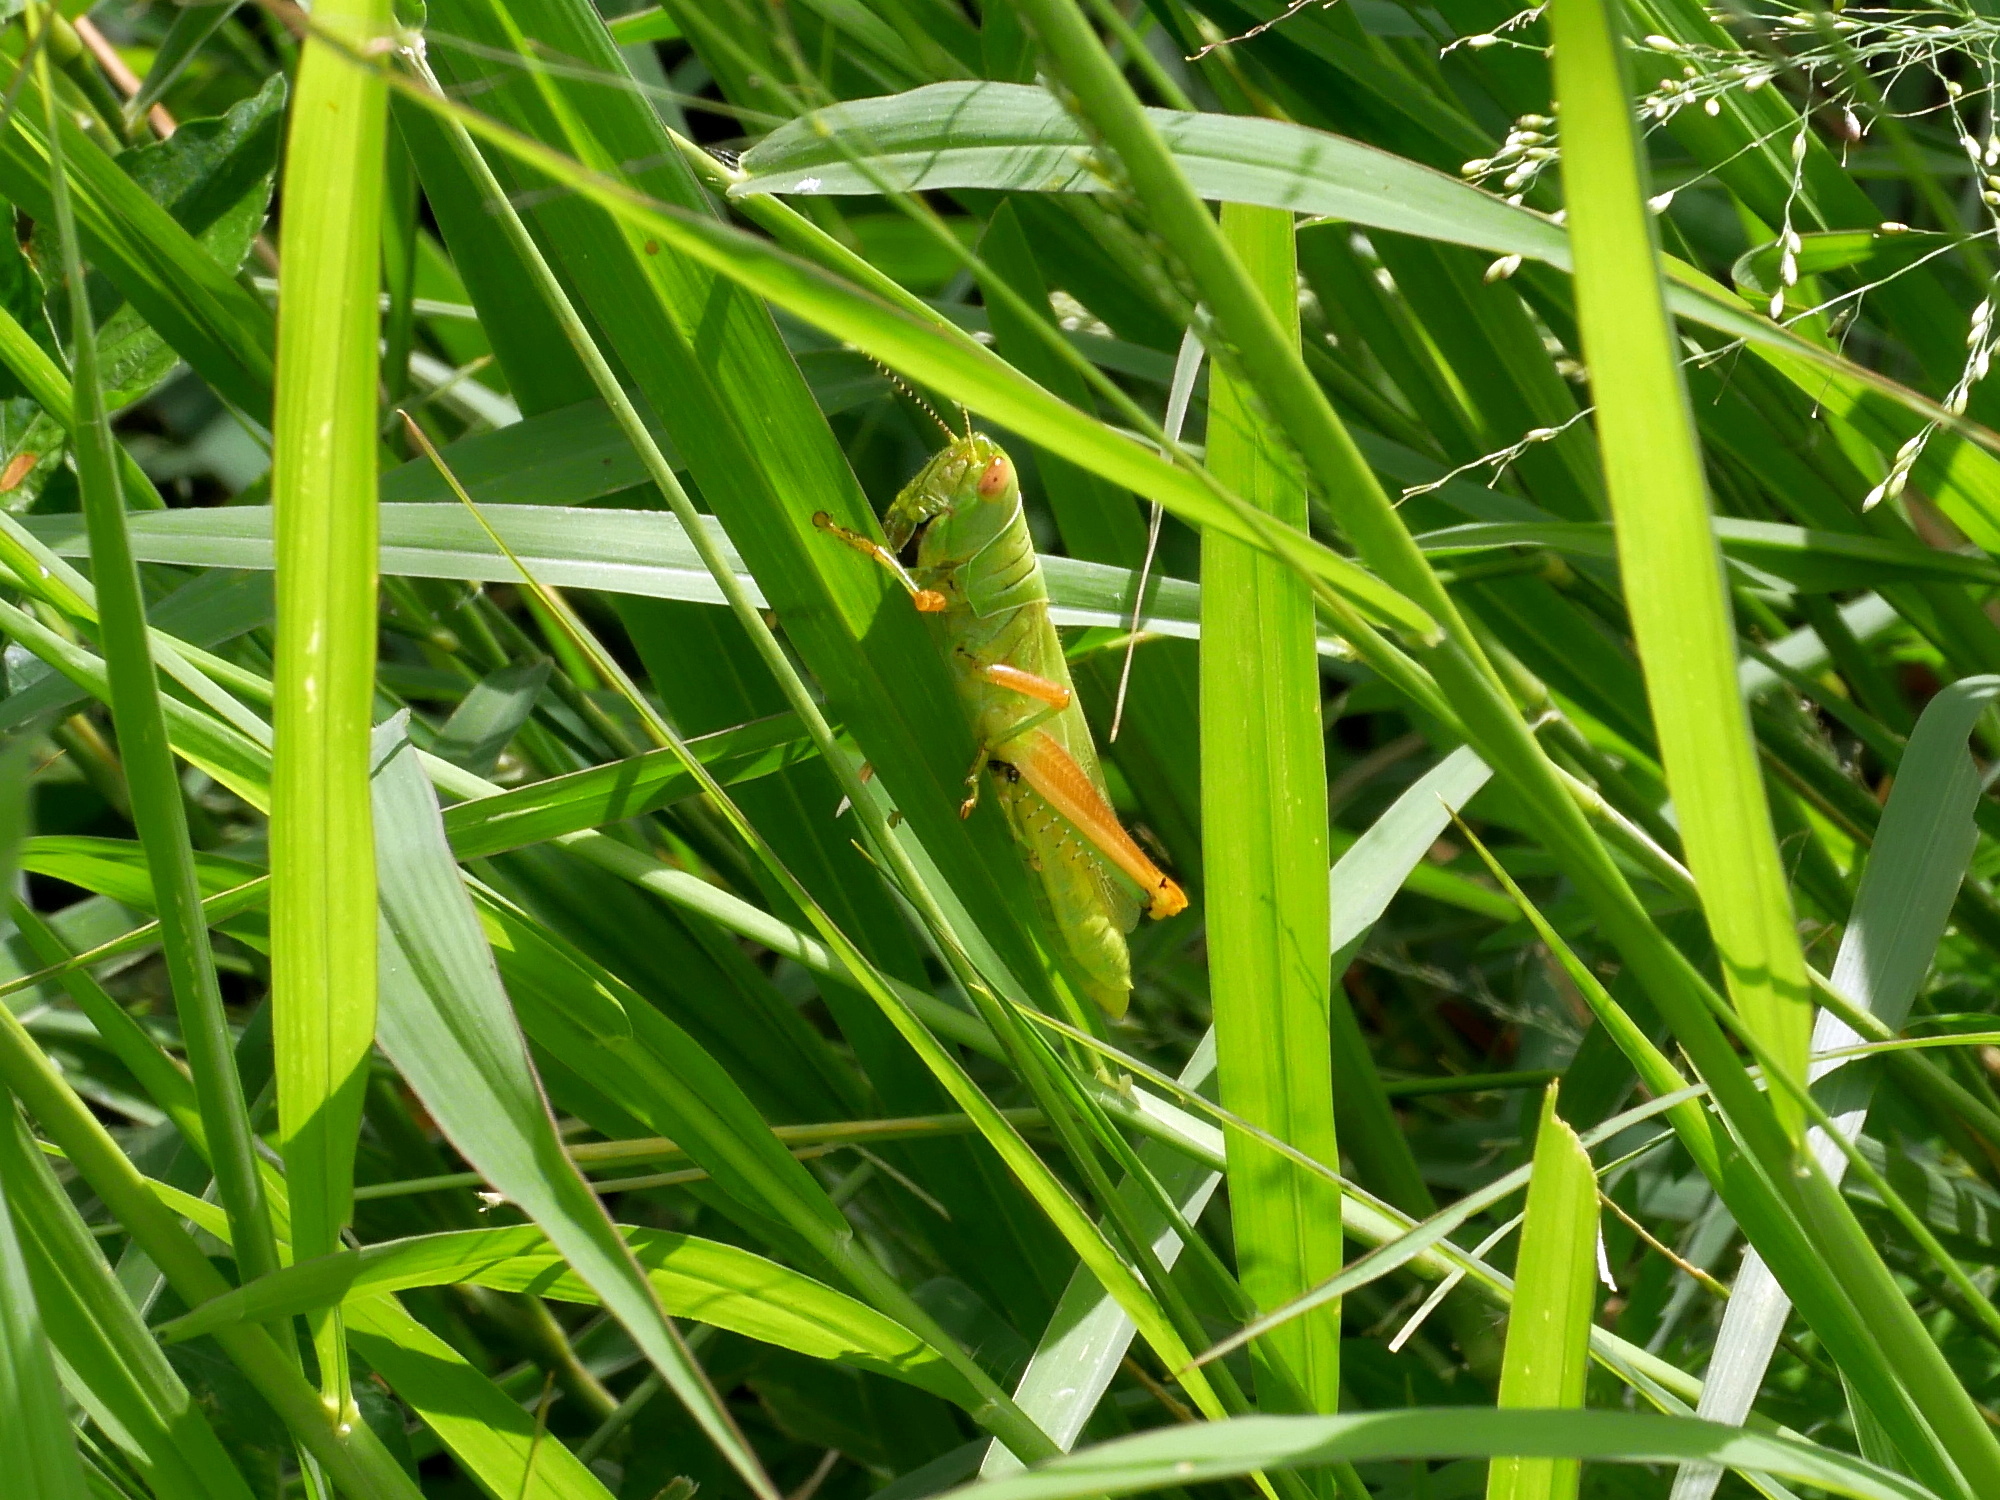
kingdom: Animalia
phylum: Arthropoda
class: Insecta
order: Orthoptera
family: Acrididae
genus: Hieroglyphus
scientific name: Hieroglyphus annulicornis
